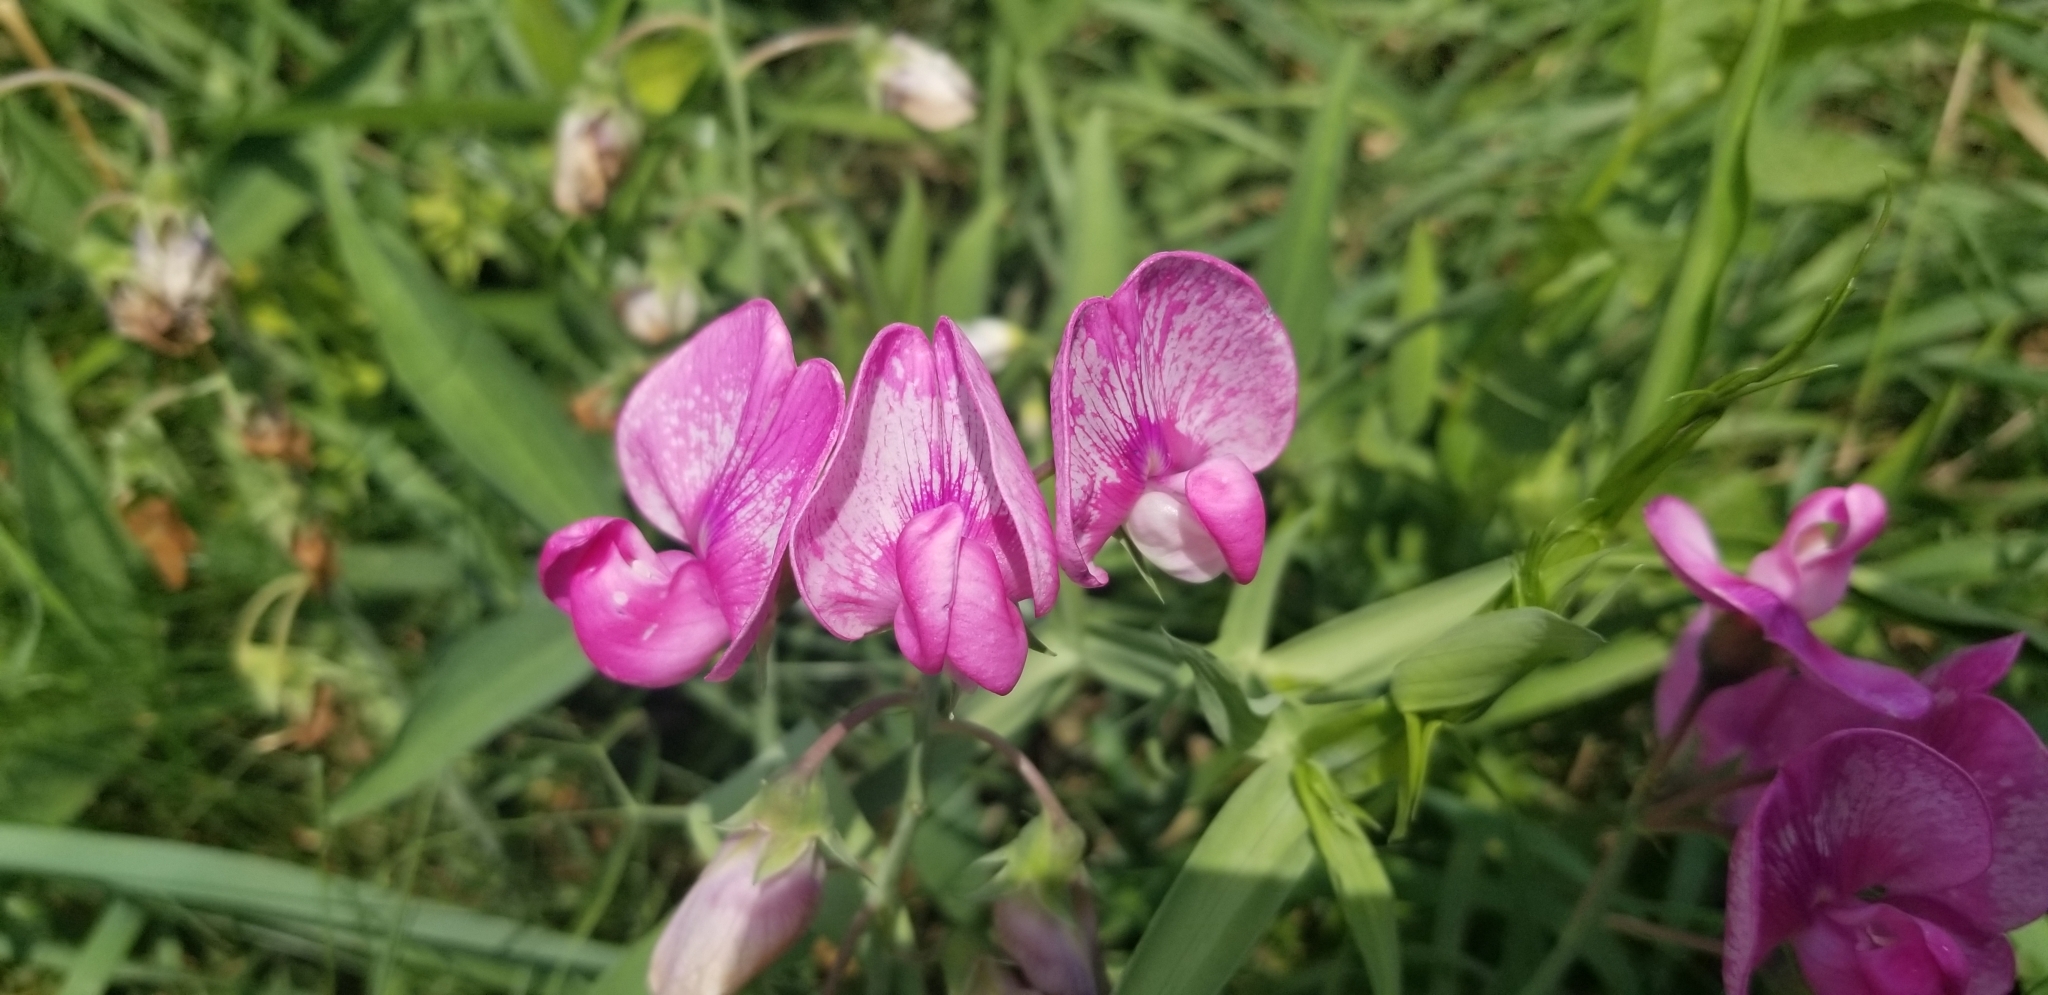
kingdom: Plantae
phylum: Tracheophyta
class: Magnoliopsida
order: Fabales
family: Fabaceae
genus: Lathyrus
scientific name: Lathyrus latifolius
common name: Perennial pea
